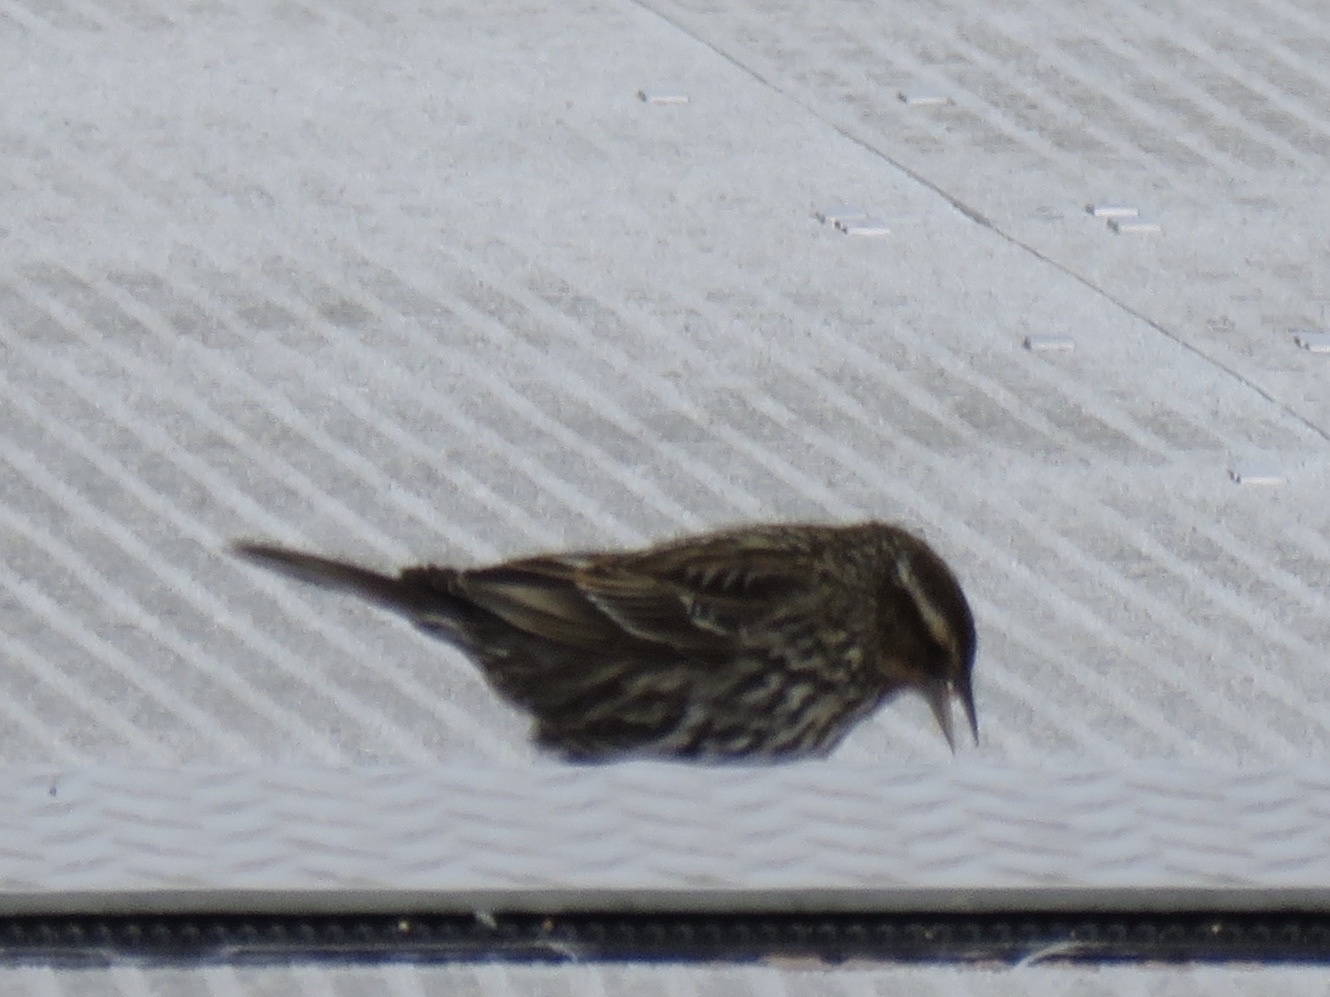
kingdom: Animalia
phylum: Chordata
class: Aves
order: Passeriformes
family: Icteridae
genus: Agelaius
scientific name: Agelaius phoeniceus
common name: Red-winged blackbird
